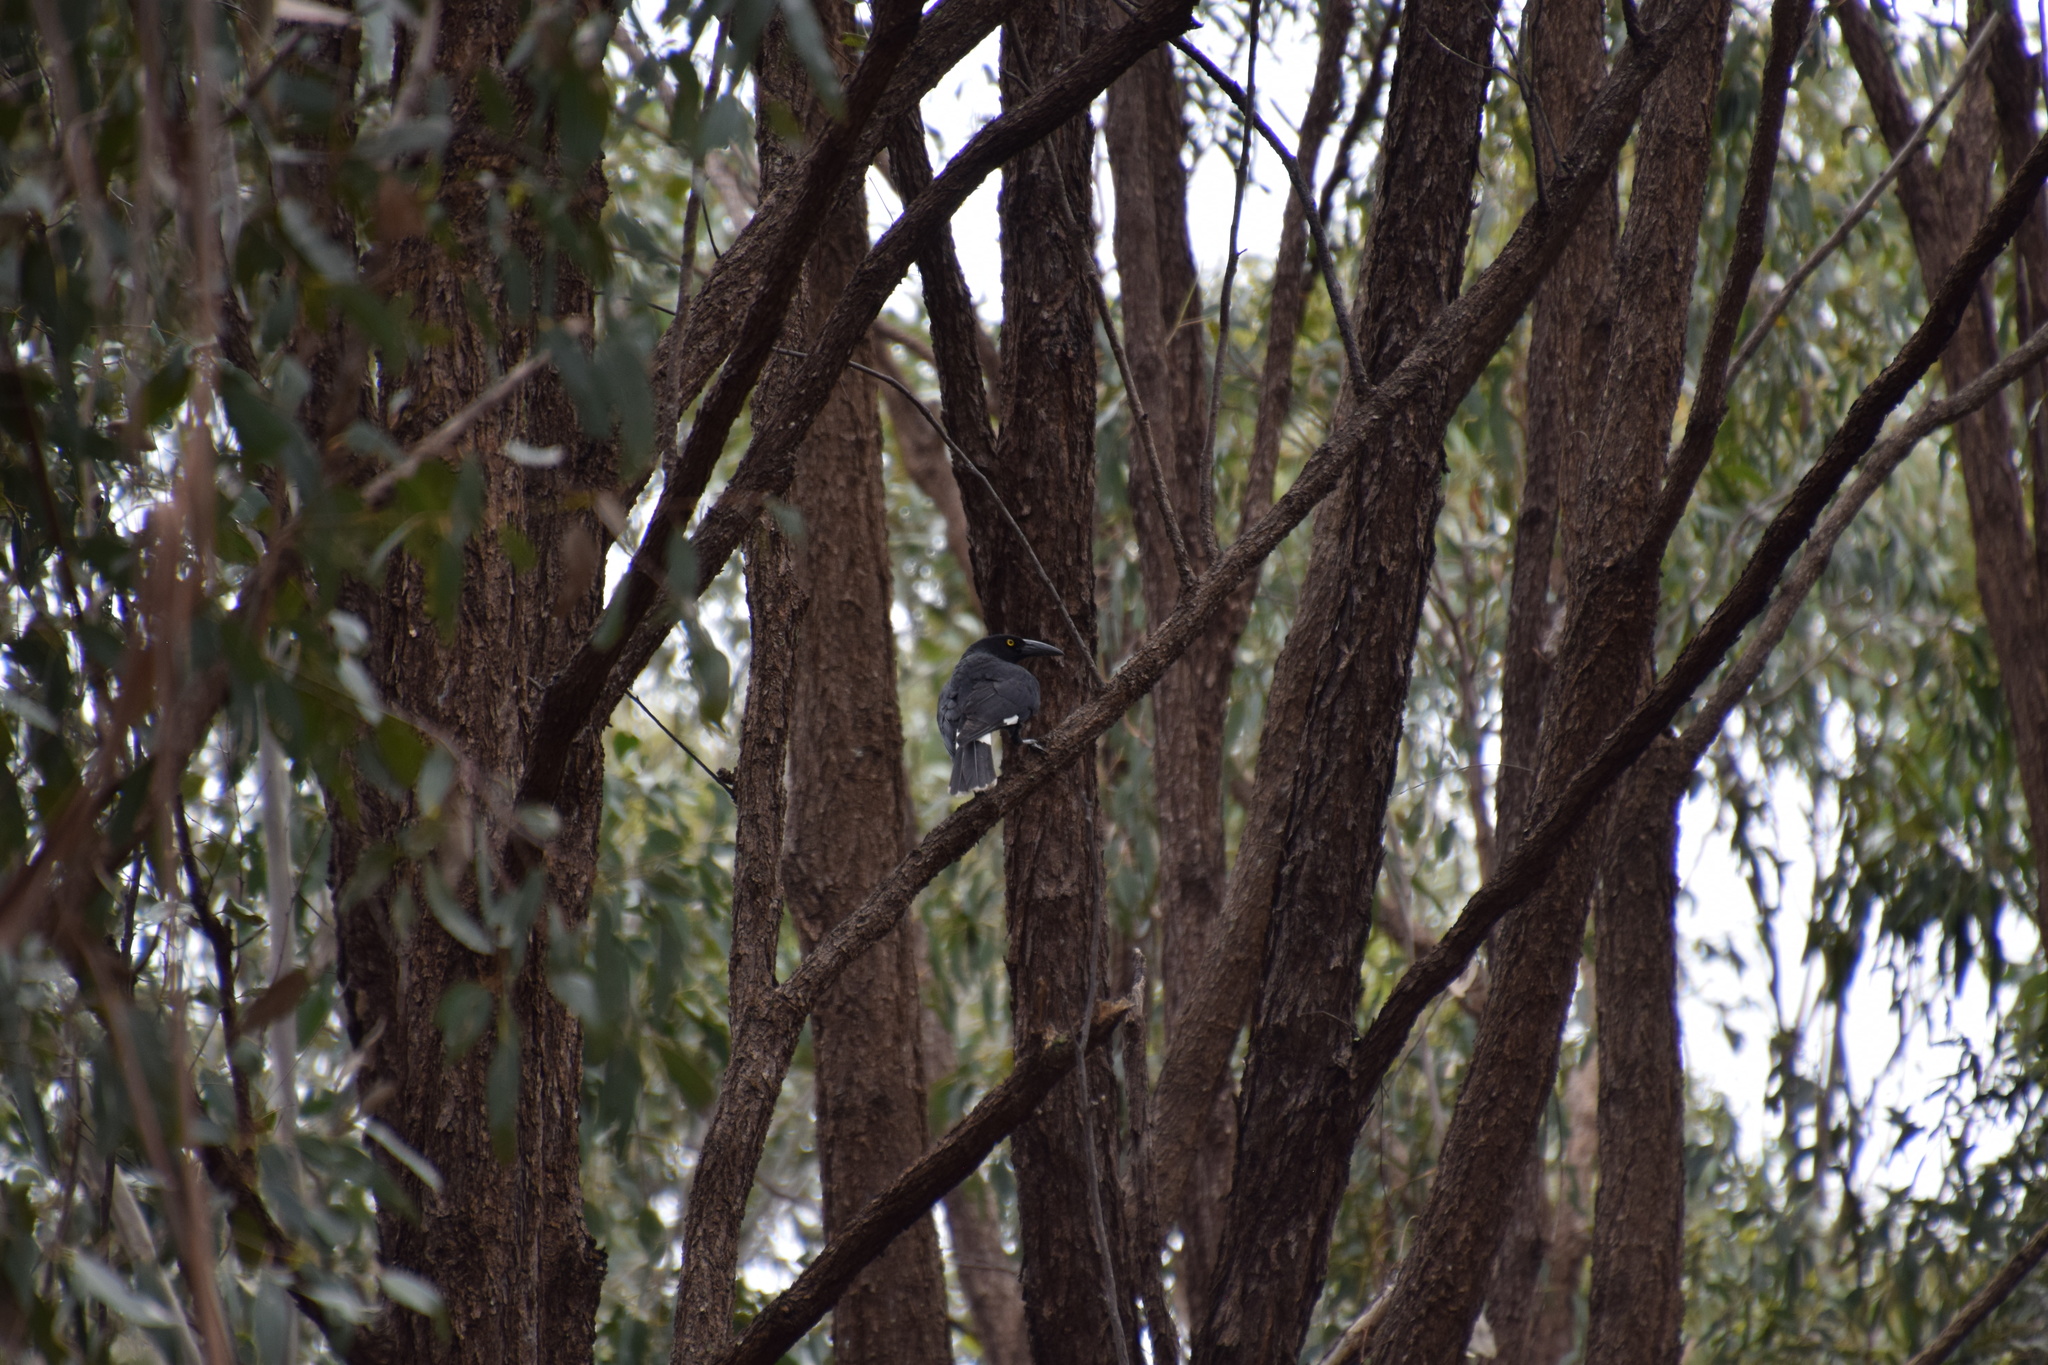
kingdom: Animalia
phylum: Chordata
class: Aves
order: Passeriformes
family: Cracticidae
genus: Strepera
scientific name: Strepera graculina
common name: Pied currawong
